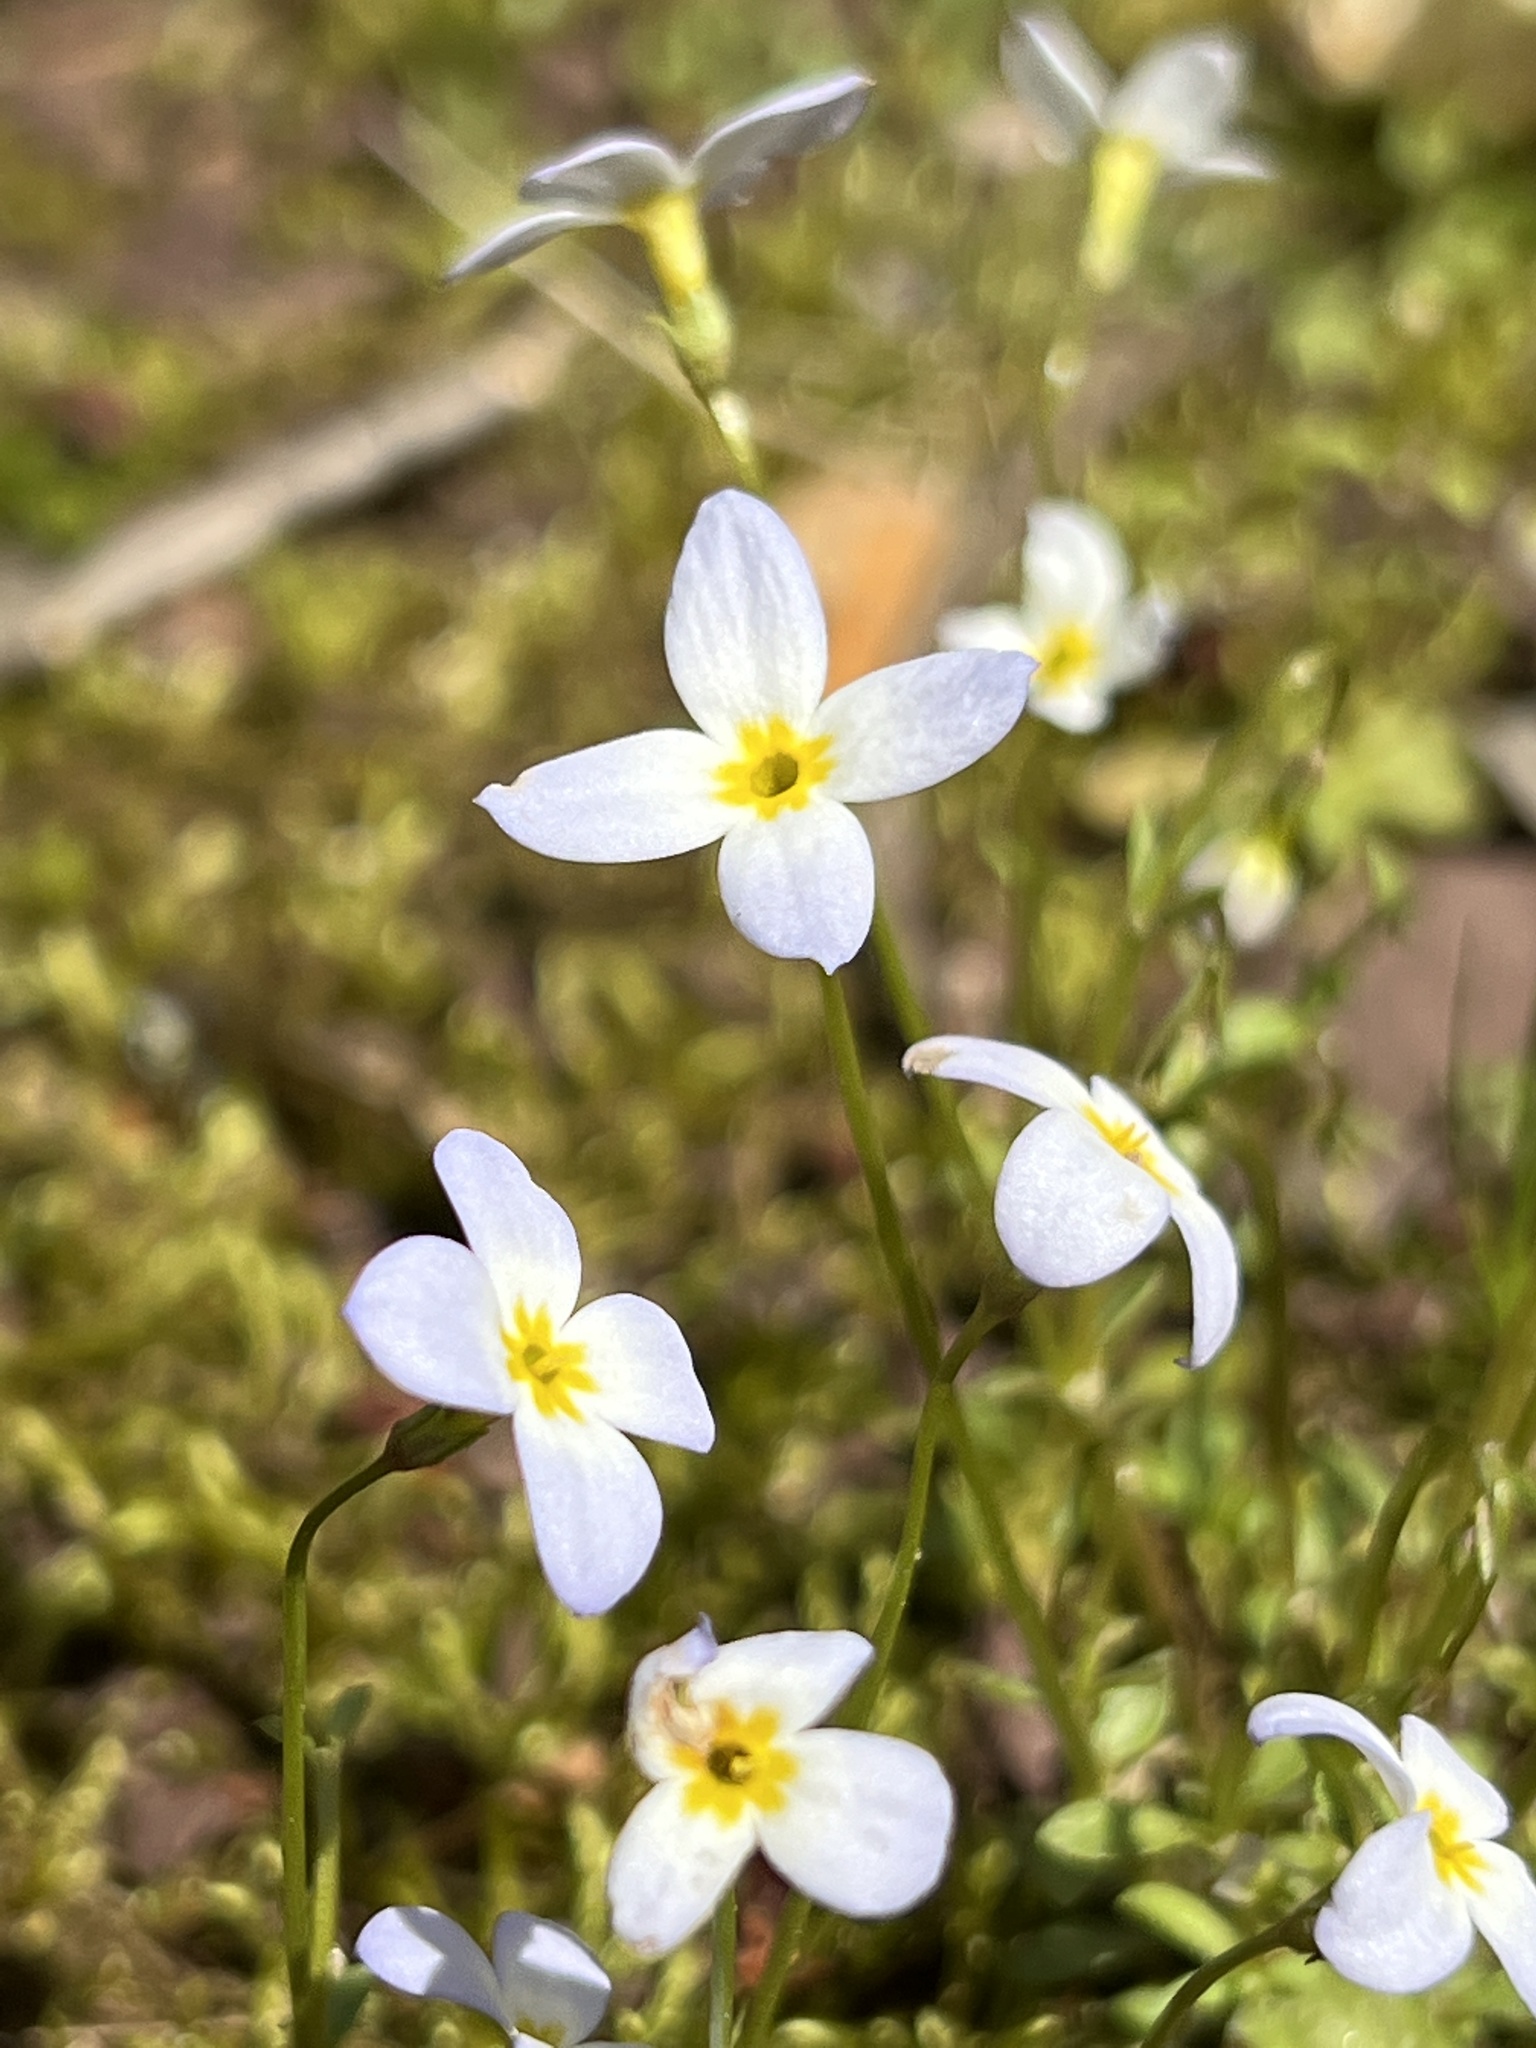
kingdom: Plantae
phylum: Tracheophyta
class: Magnoliopsida
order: Gentianales
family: Rubiaceae
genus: Houstonia
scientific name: Houstonia caerulea
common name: Bluets
